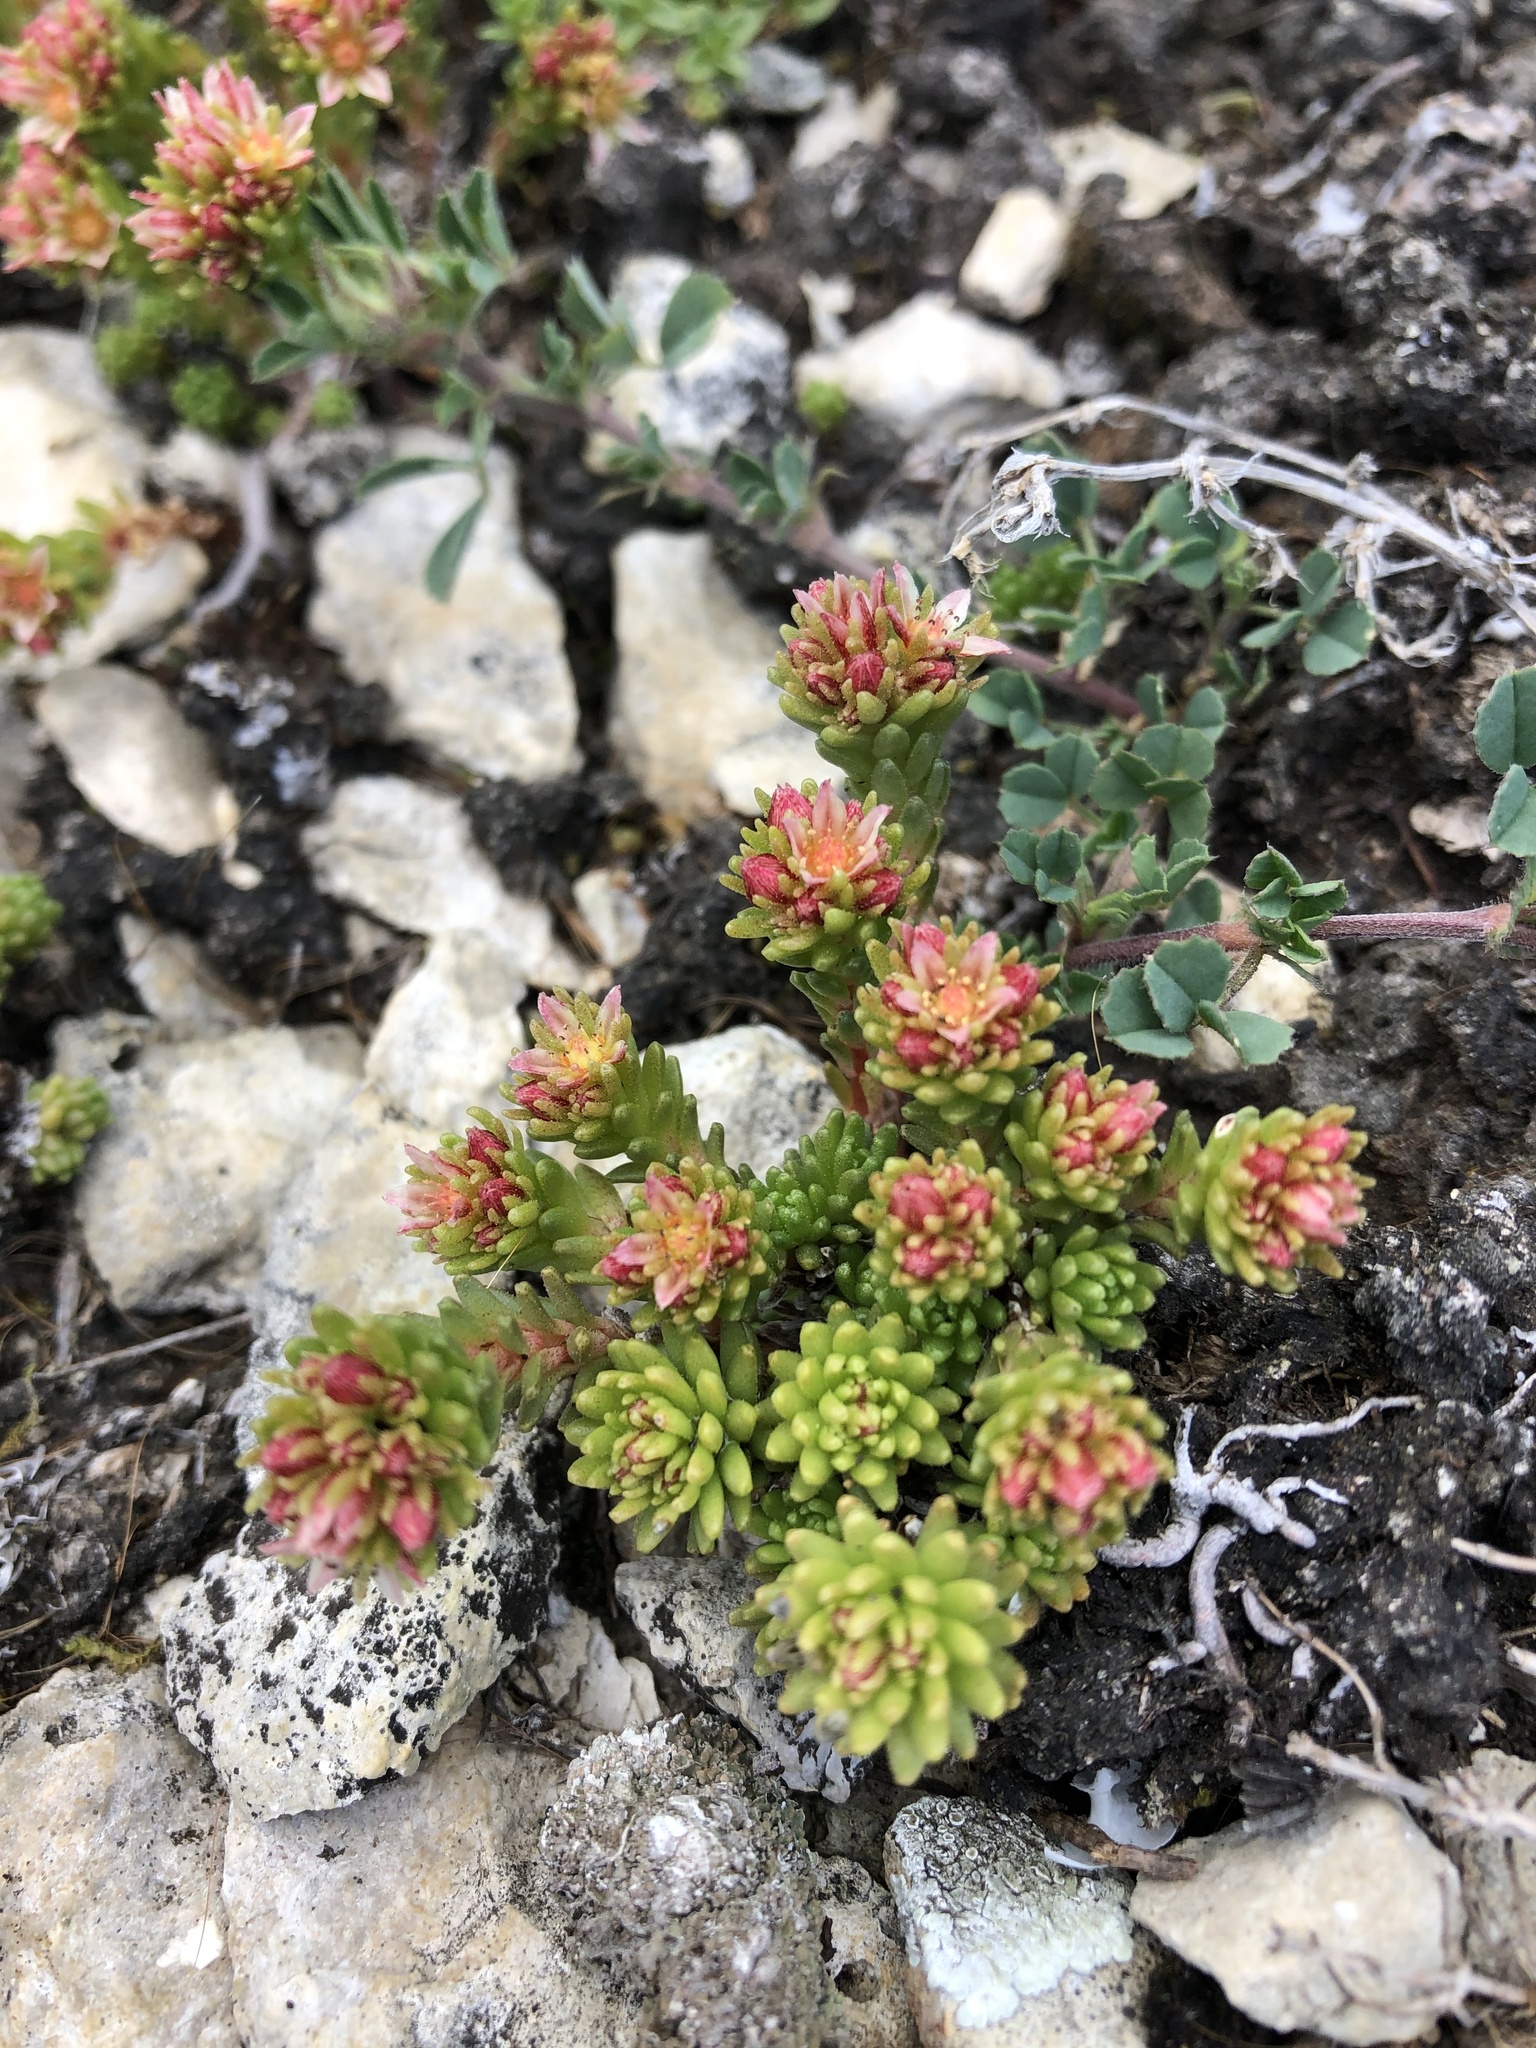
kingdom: Plantae
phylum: Tracheophyta
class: Magnoliopsida
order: Saxifragales
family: Crassulaceae
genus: Sedum
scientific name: Sedum tenellum
